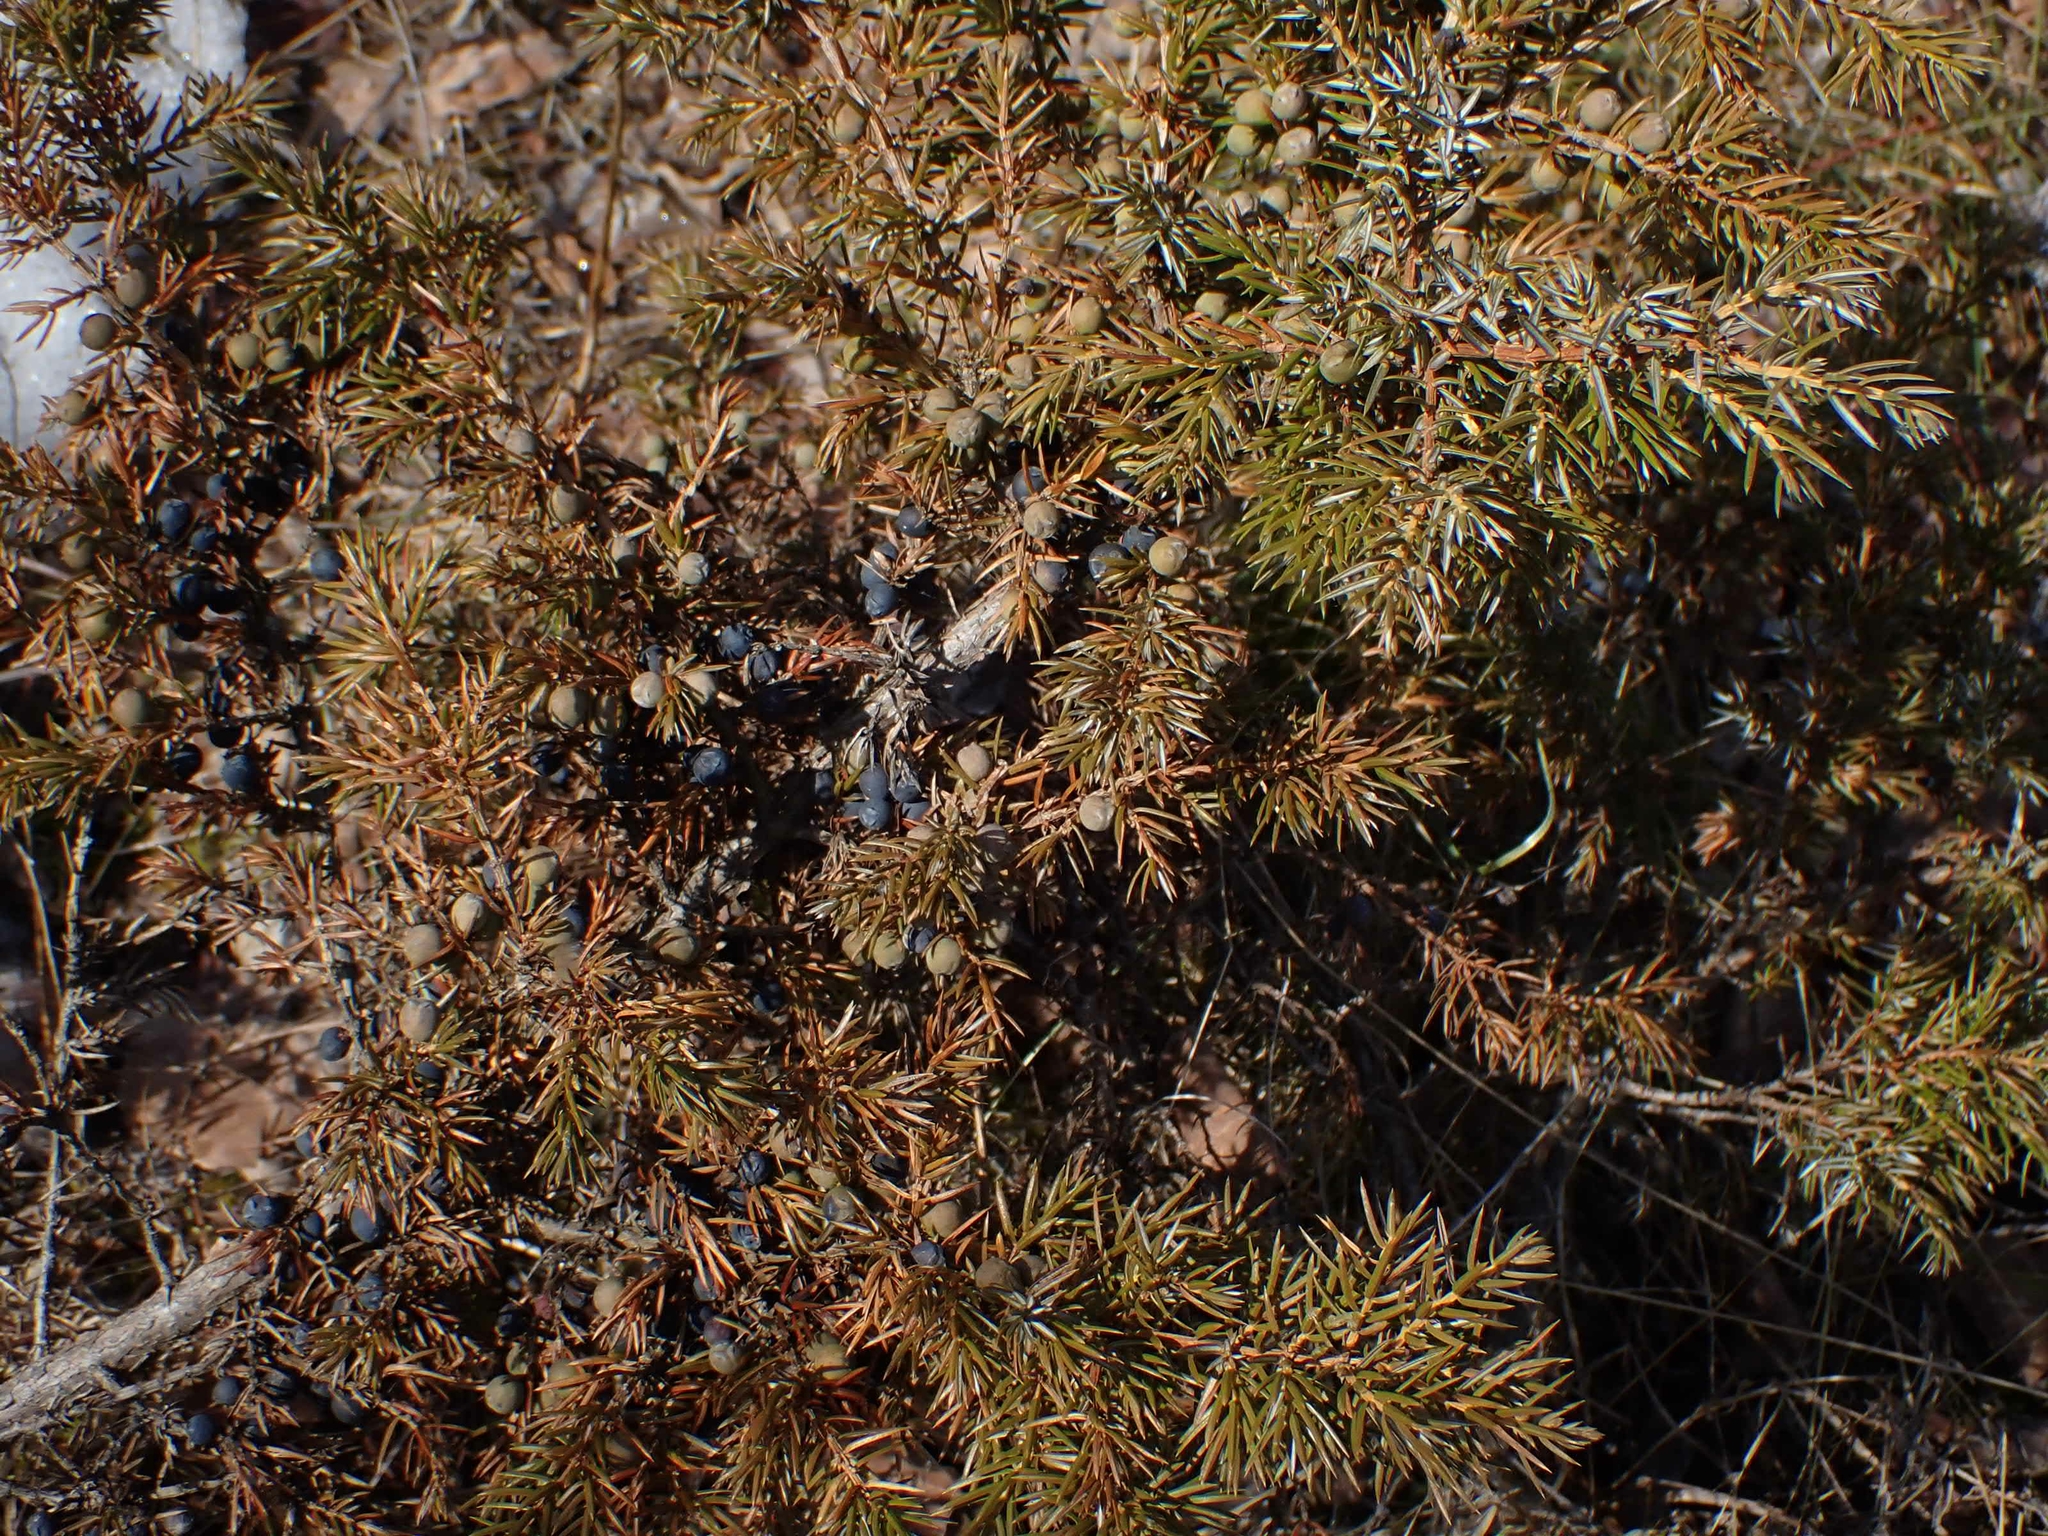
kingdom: Plantae
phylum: Tracheophyta
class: Pinopsida
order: Pinales
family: Cupressaceae
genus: Juniperus
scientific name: Juniperus communis
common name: Common juniper
